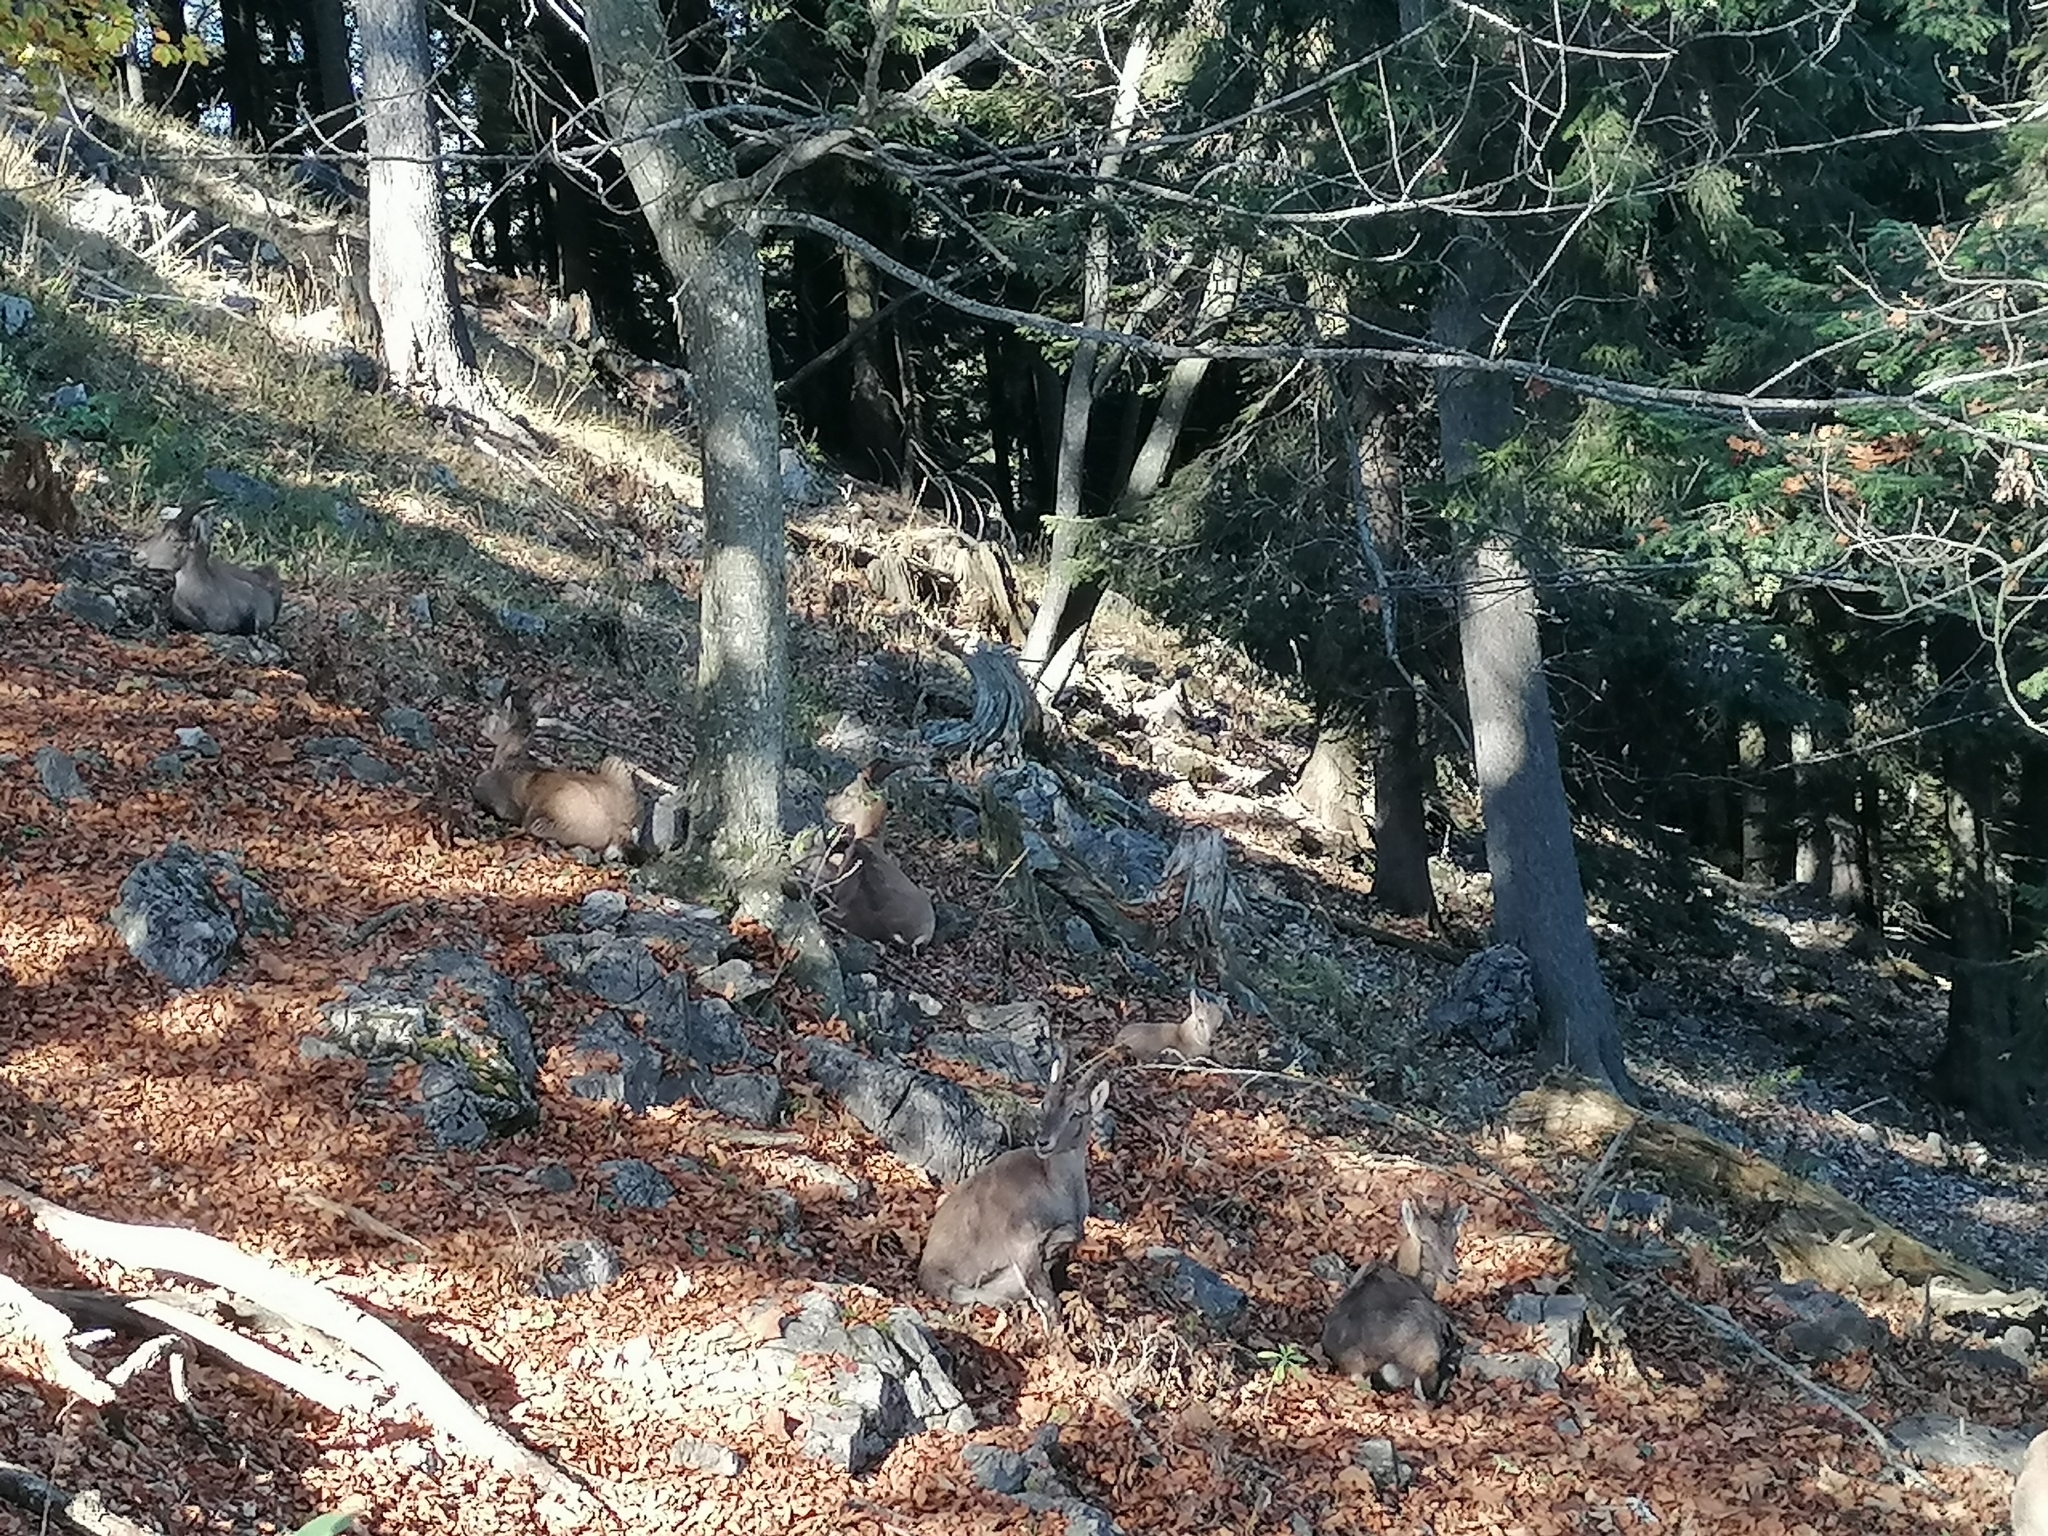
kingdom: Animalia
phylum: Chordata
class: Mammalia
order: Artiodactyla
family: Bovidae
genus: Capra
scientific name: Capra ibex
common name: Alpine ibex
